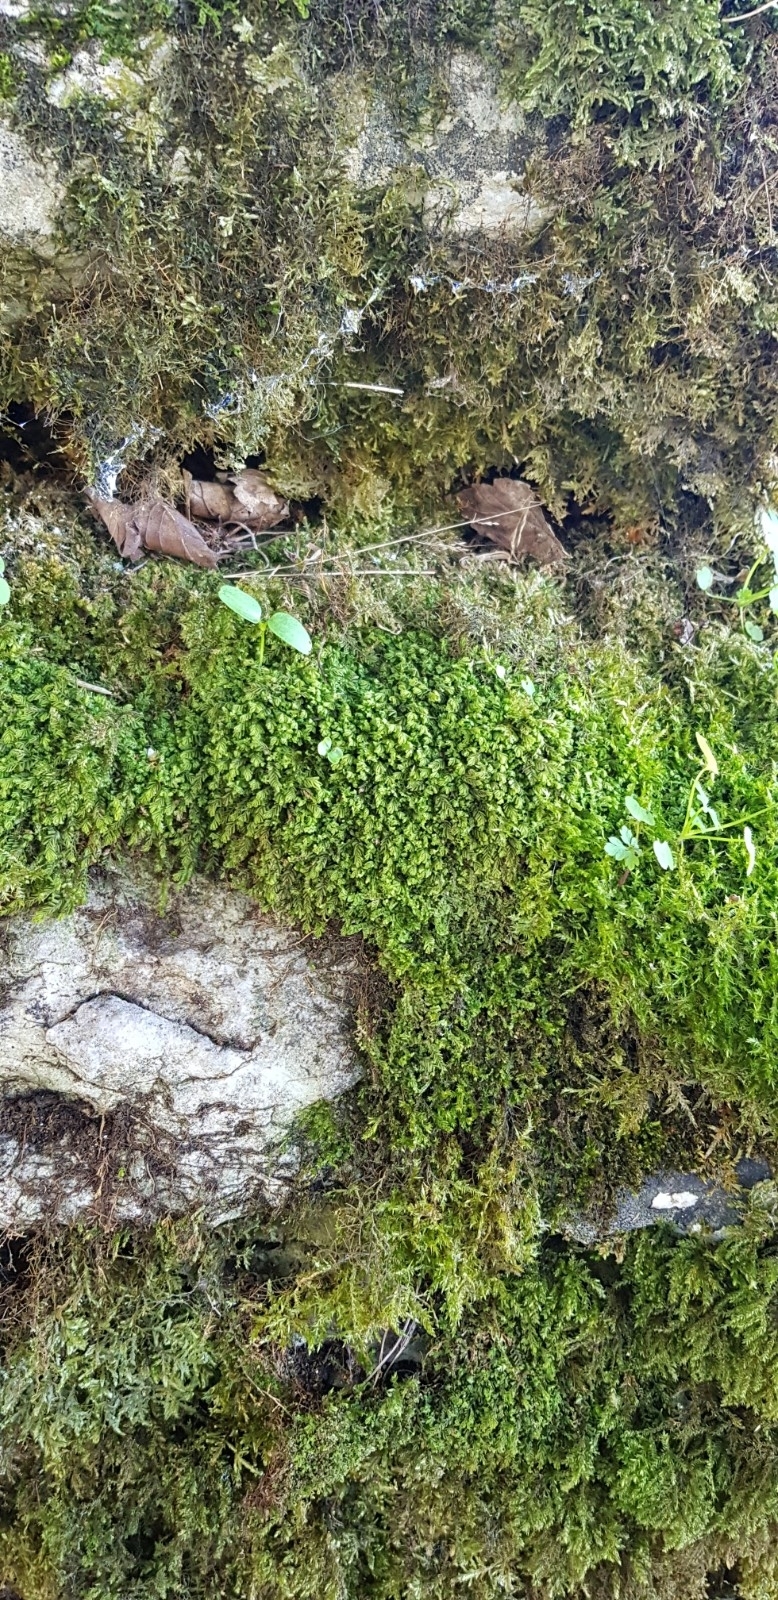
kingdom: Plantae
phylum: Marchantiophyta
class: Jungermanniopsida
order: Jungermanniales
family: Plagiochilaceae
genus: Plagiochila
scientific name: Plagiochila porelloides
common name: Lesser featherwort
